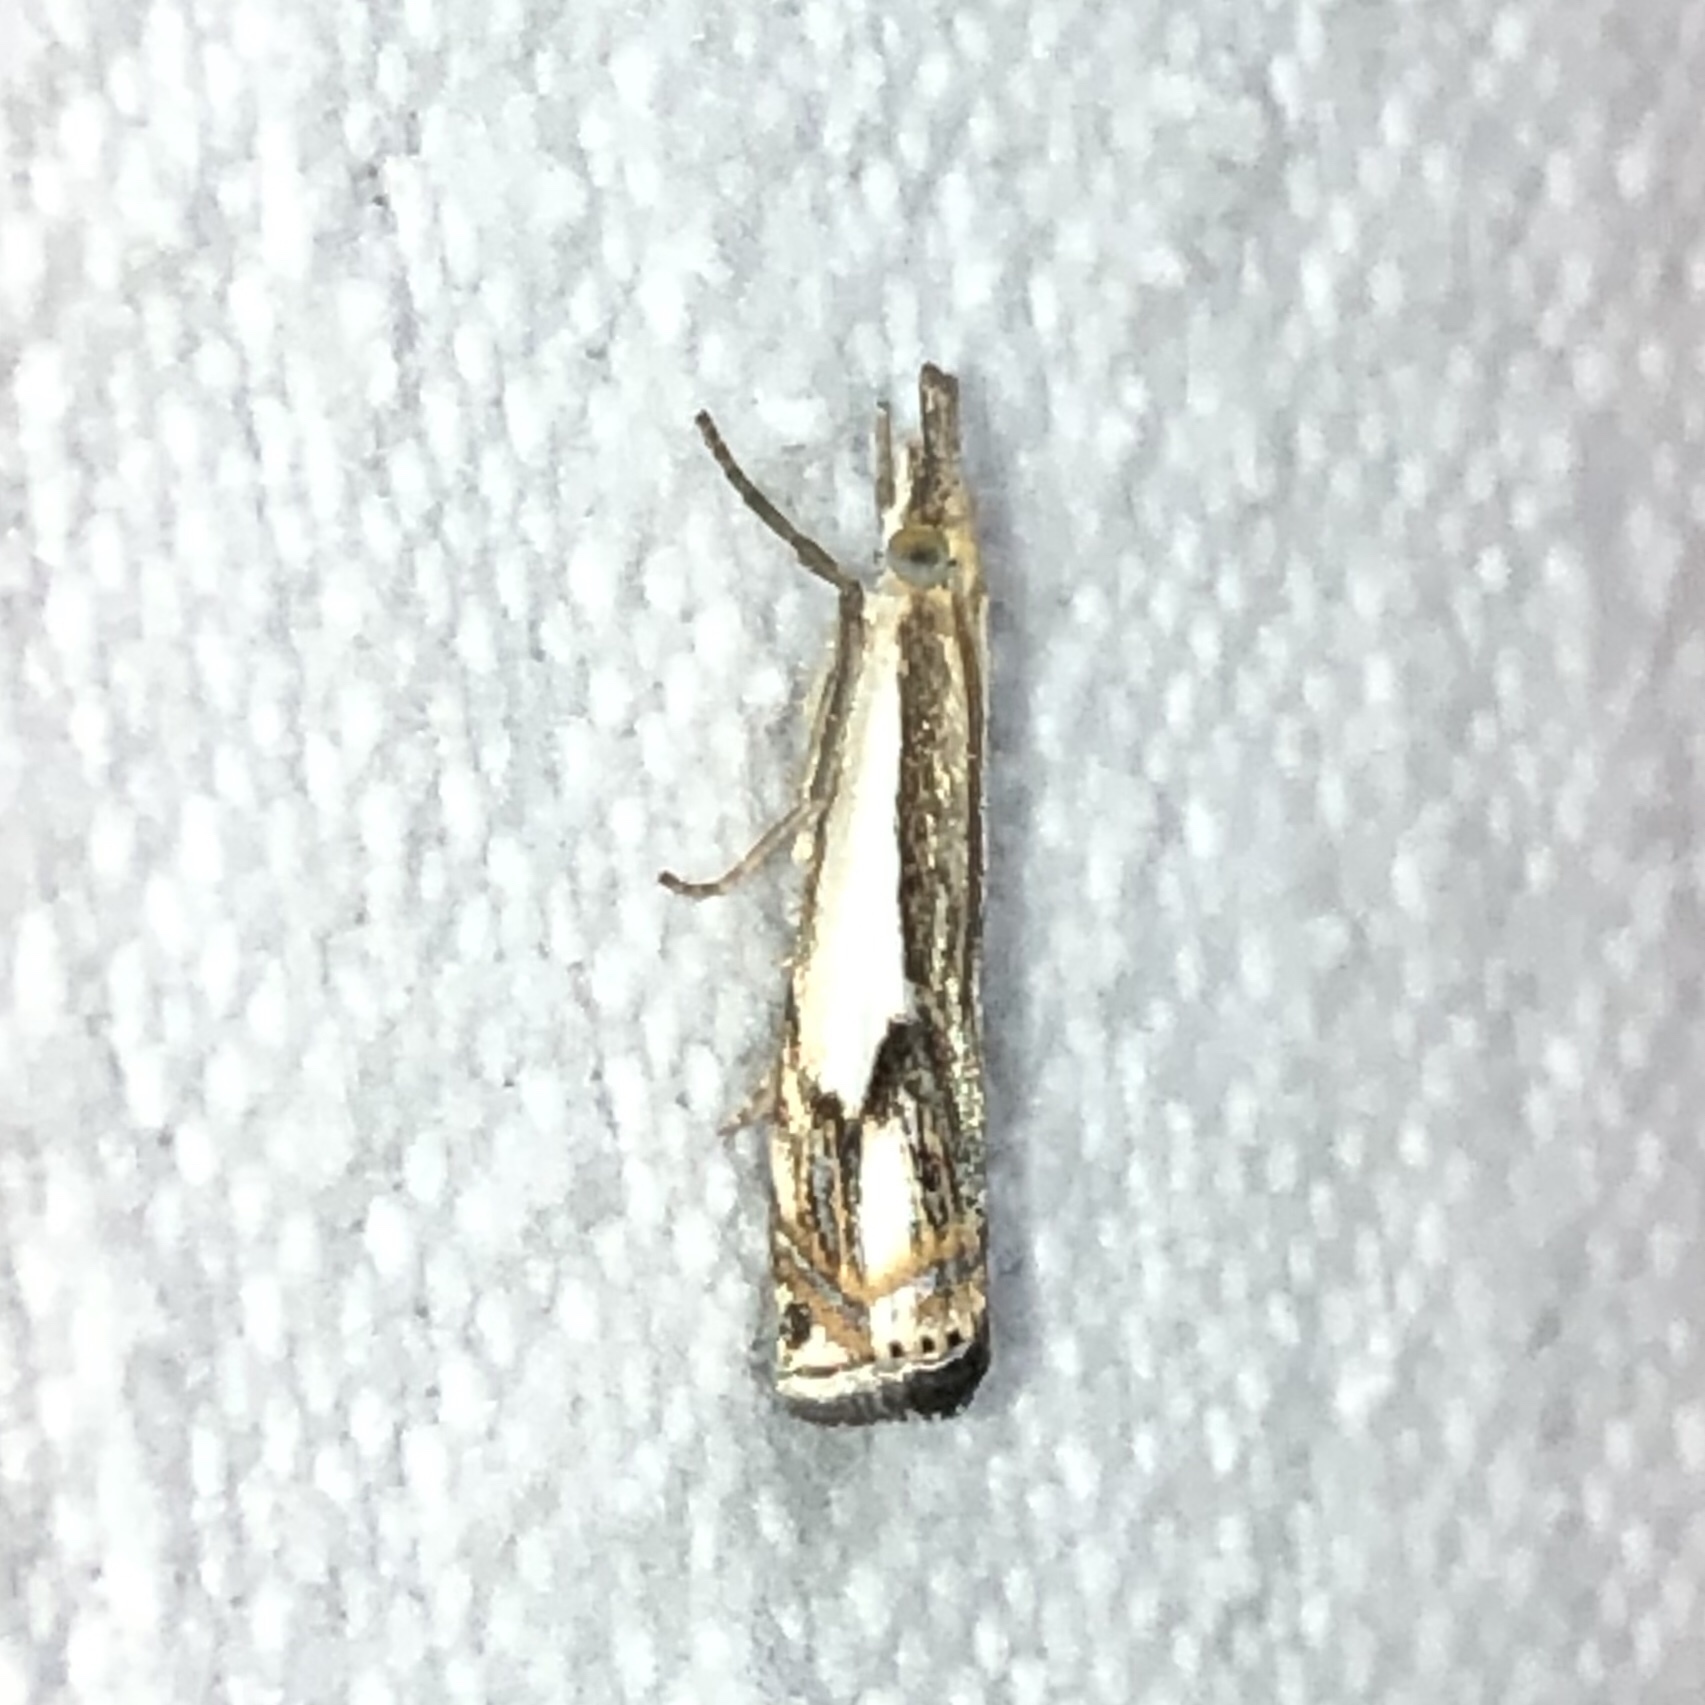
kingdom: Animalia
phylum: Arthropoda
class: Insecta
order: Lepidoptera
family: Crambidae
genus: Crambus
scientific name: Crambus agitatellus
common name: Double-banded grass-veneer
